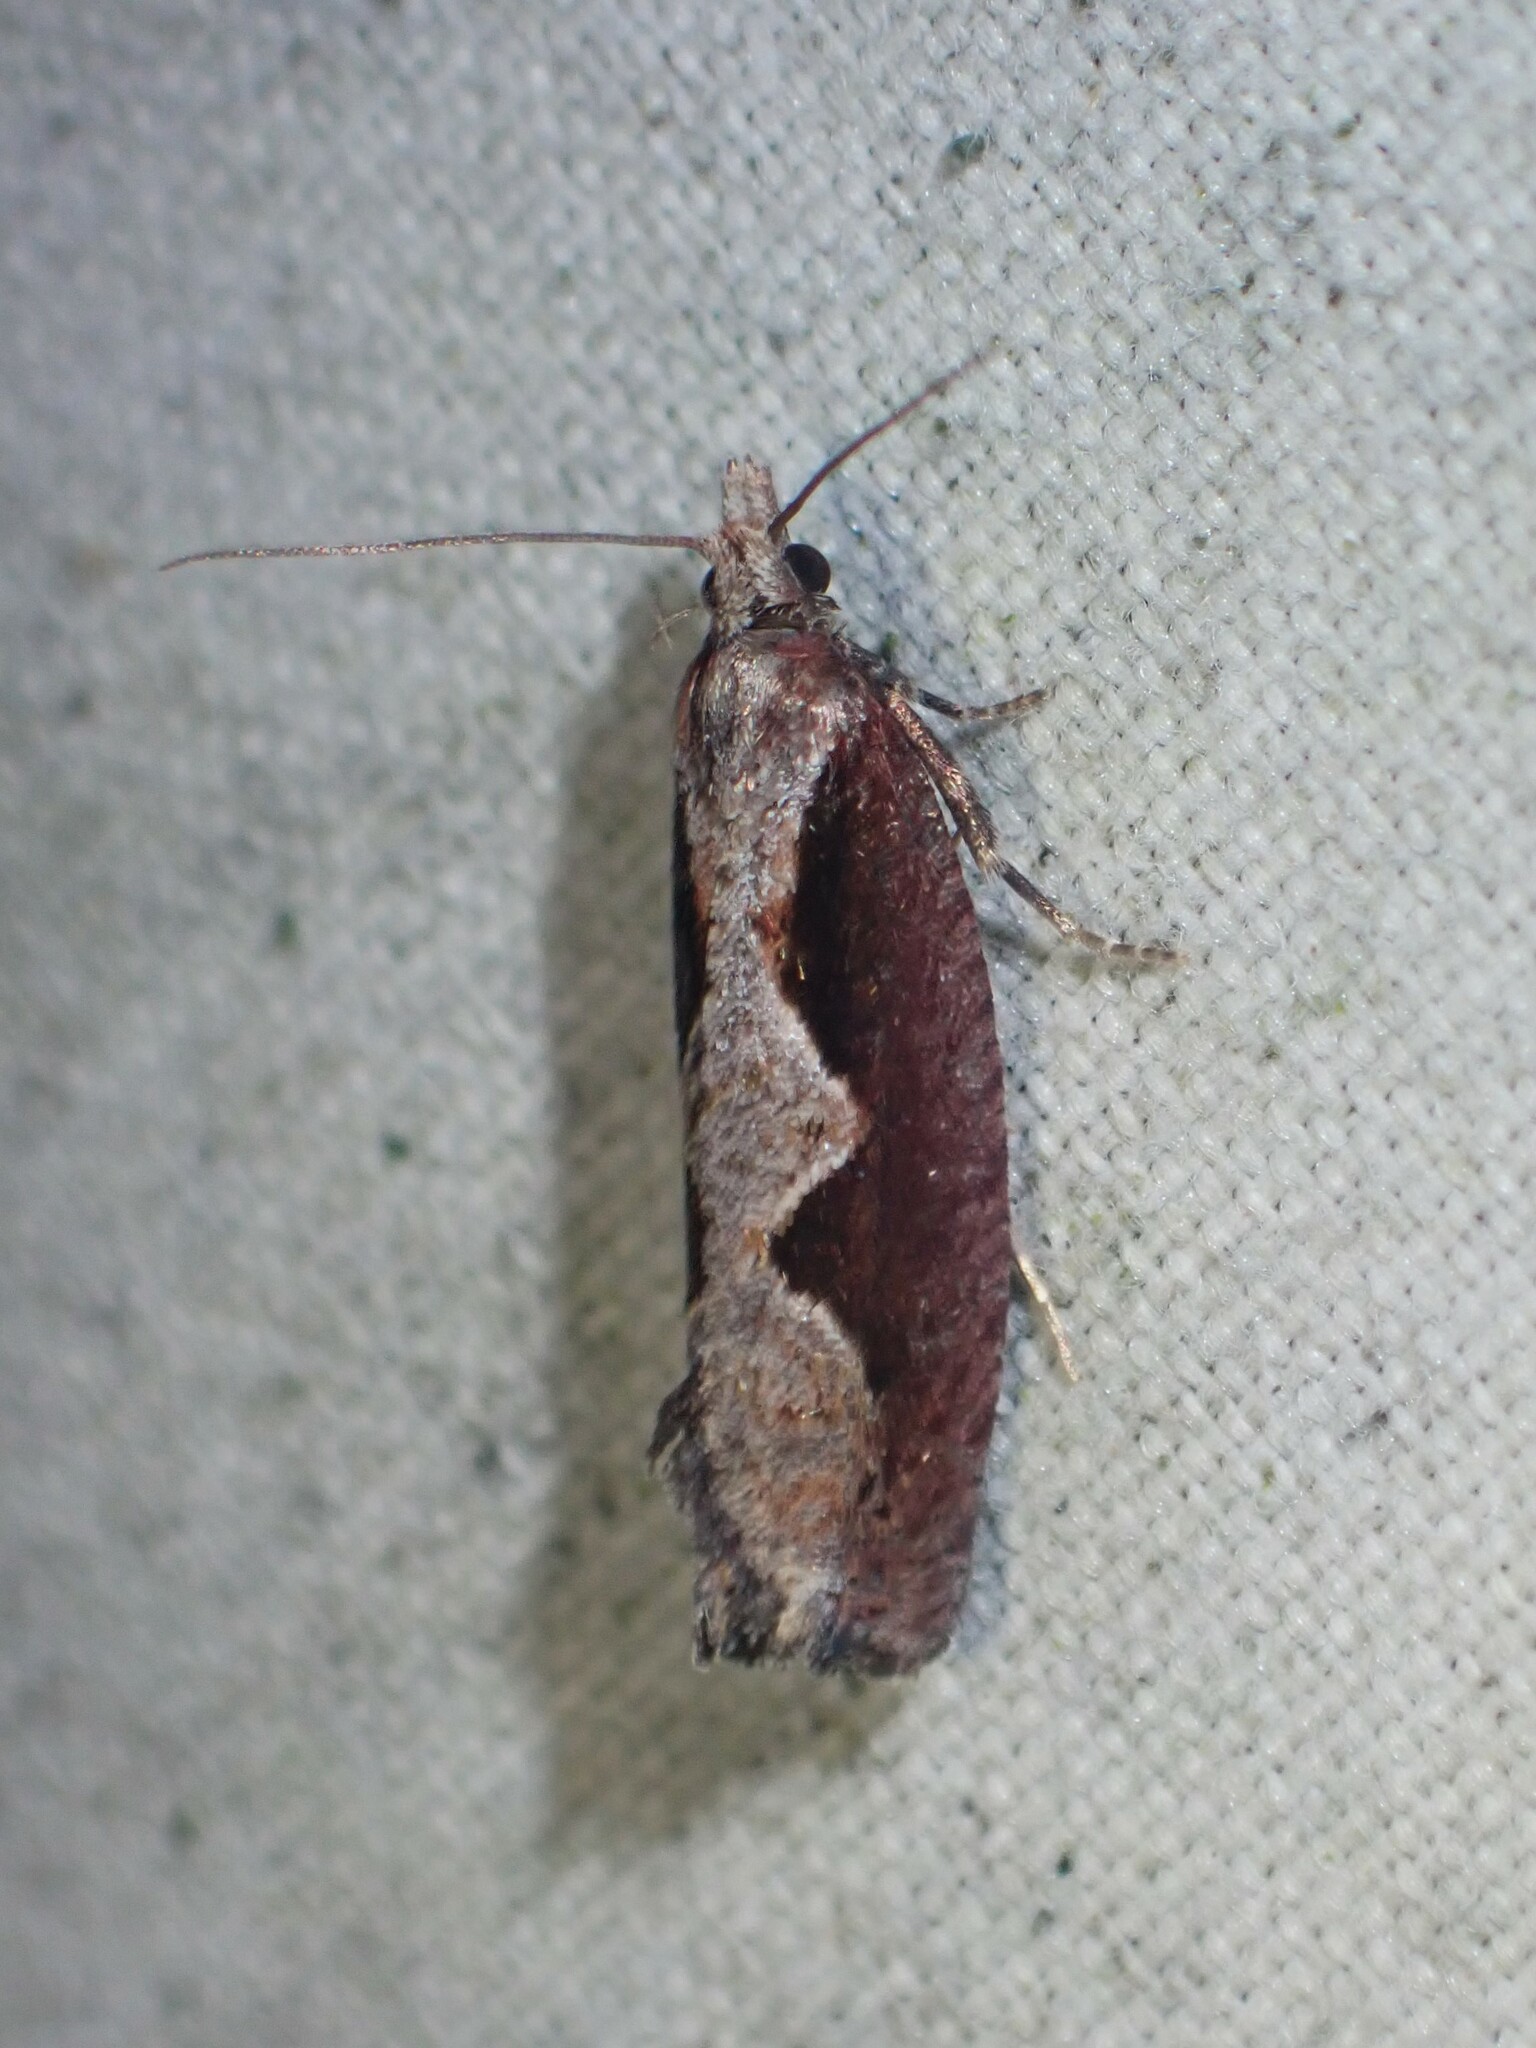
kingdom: Animalia
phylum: Arthropoda
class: Insecta
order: Lepidoptera
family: Tortricidae
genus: Epinotia
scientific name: Epinotia lindana
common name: Diamondback epinotia moth
